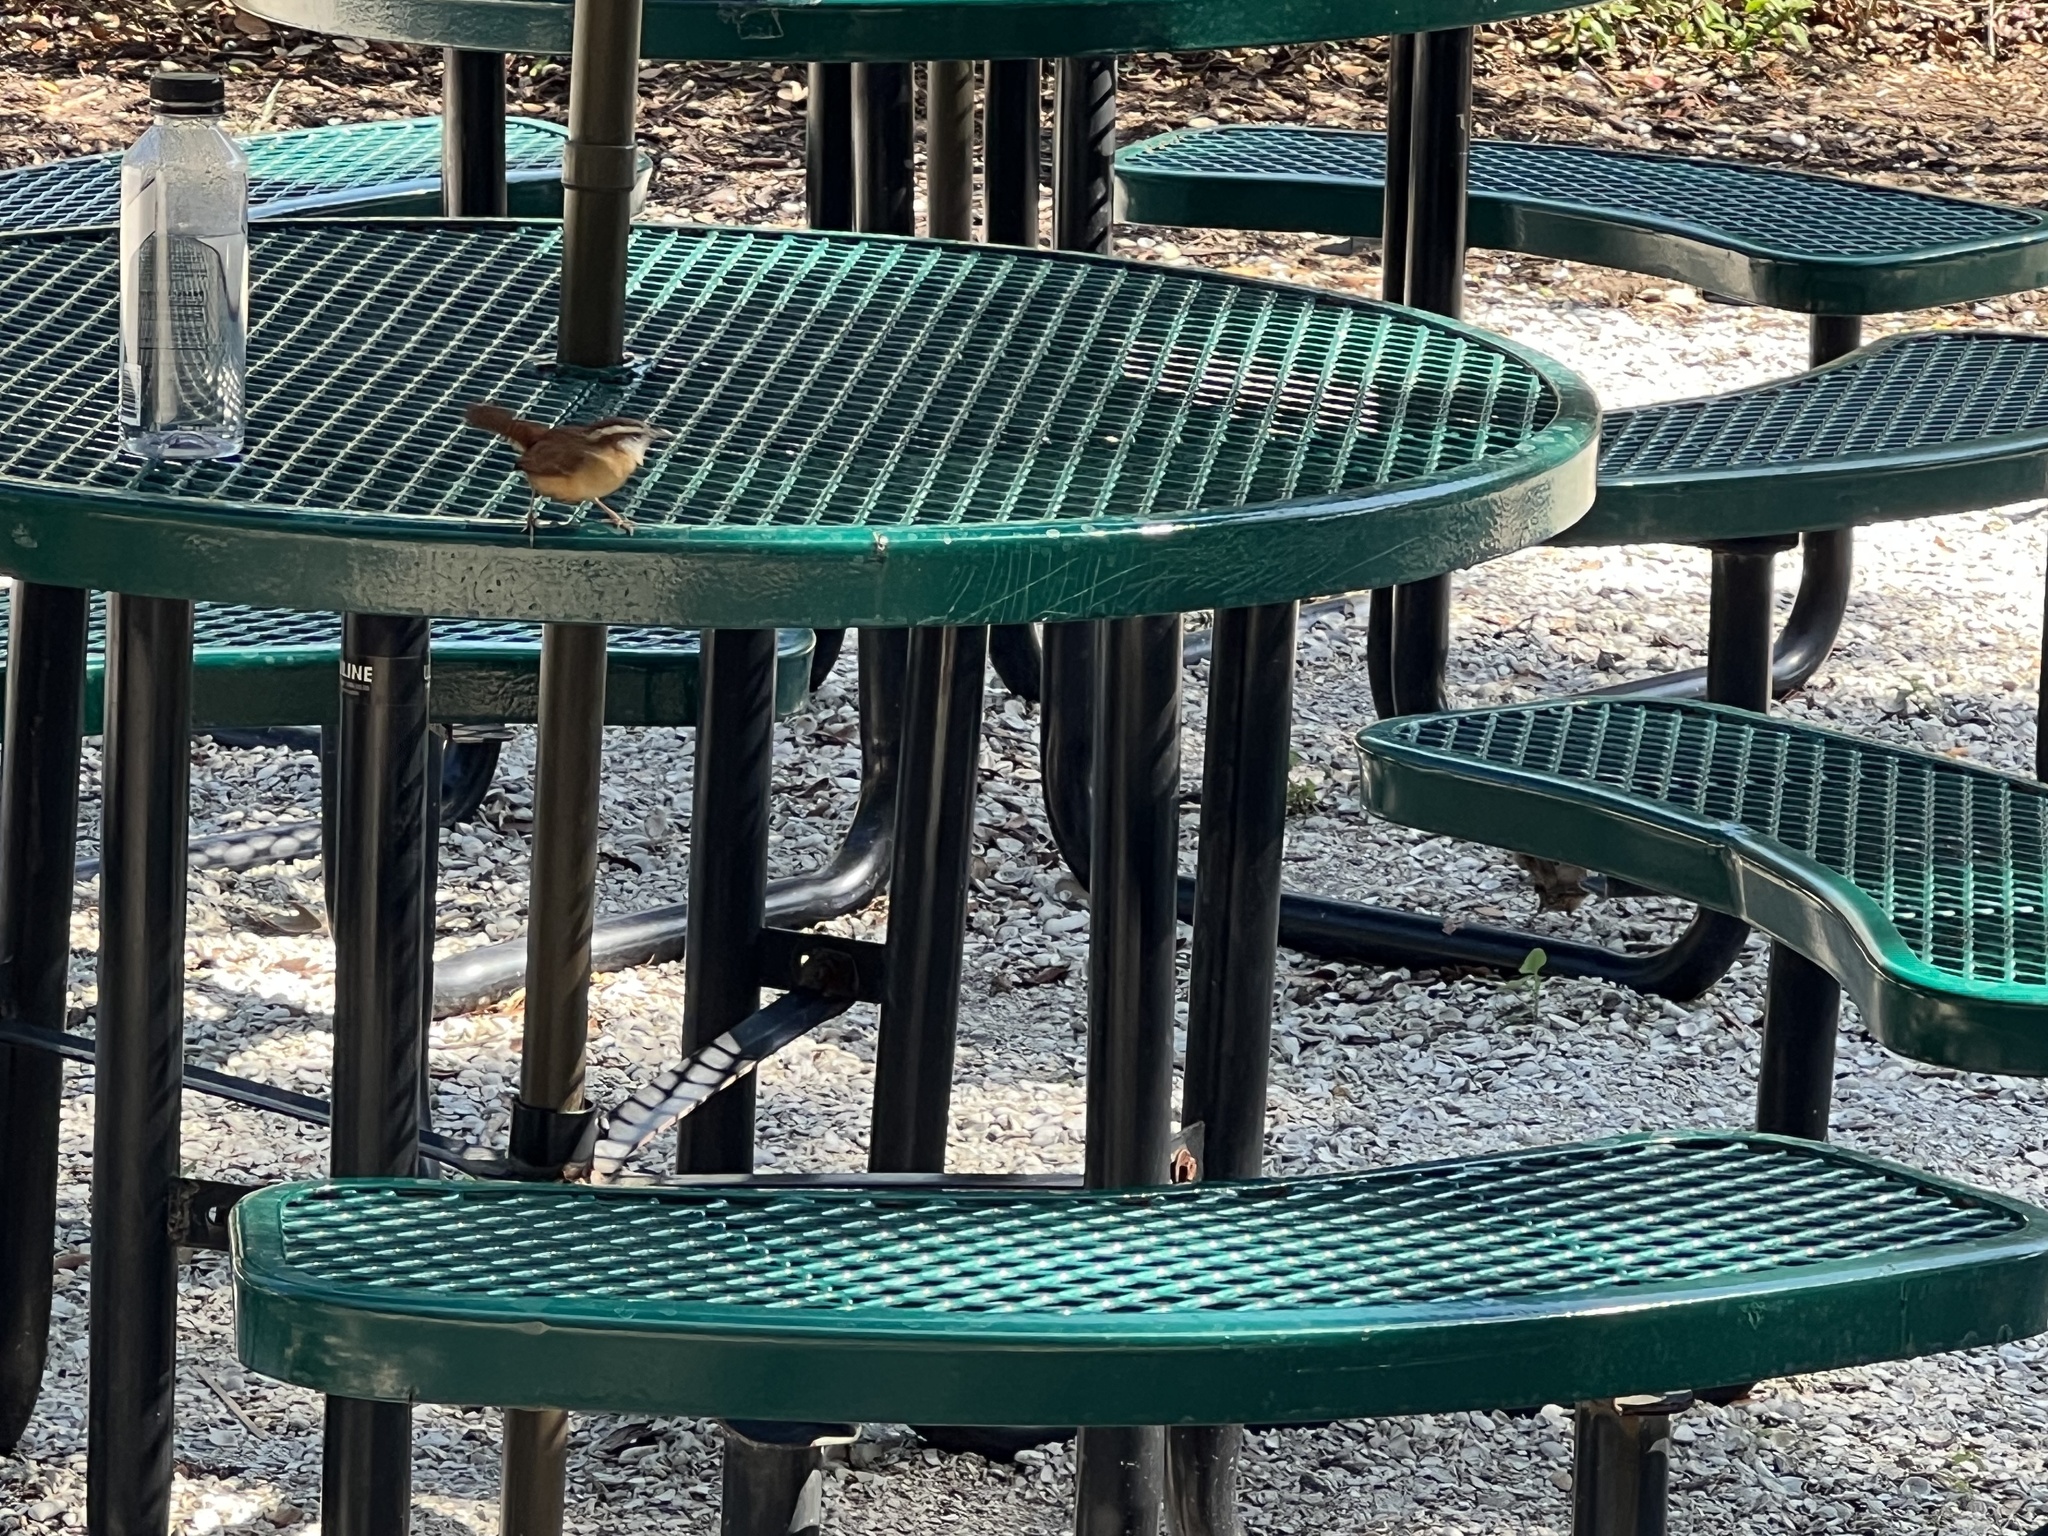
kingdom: Animalia
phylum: Chordata
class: Aves
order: Passeriformes
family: Troglodytidae
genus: Thryothorus
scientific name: Thryothorus ludovicianus
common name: Carolina wren
